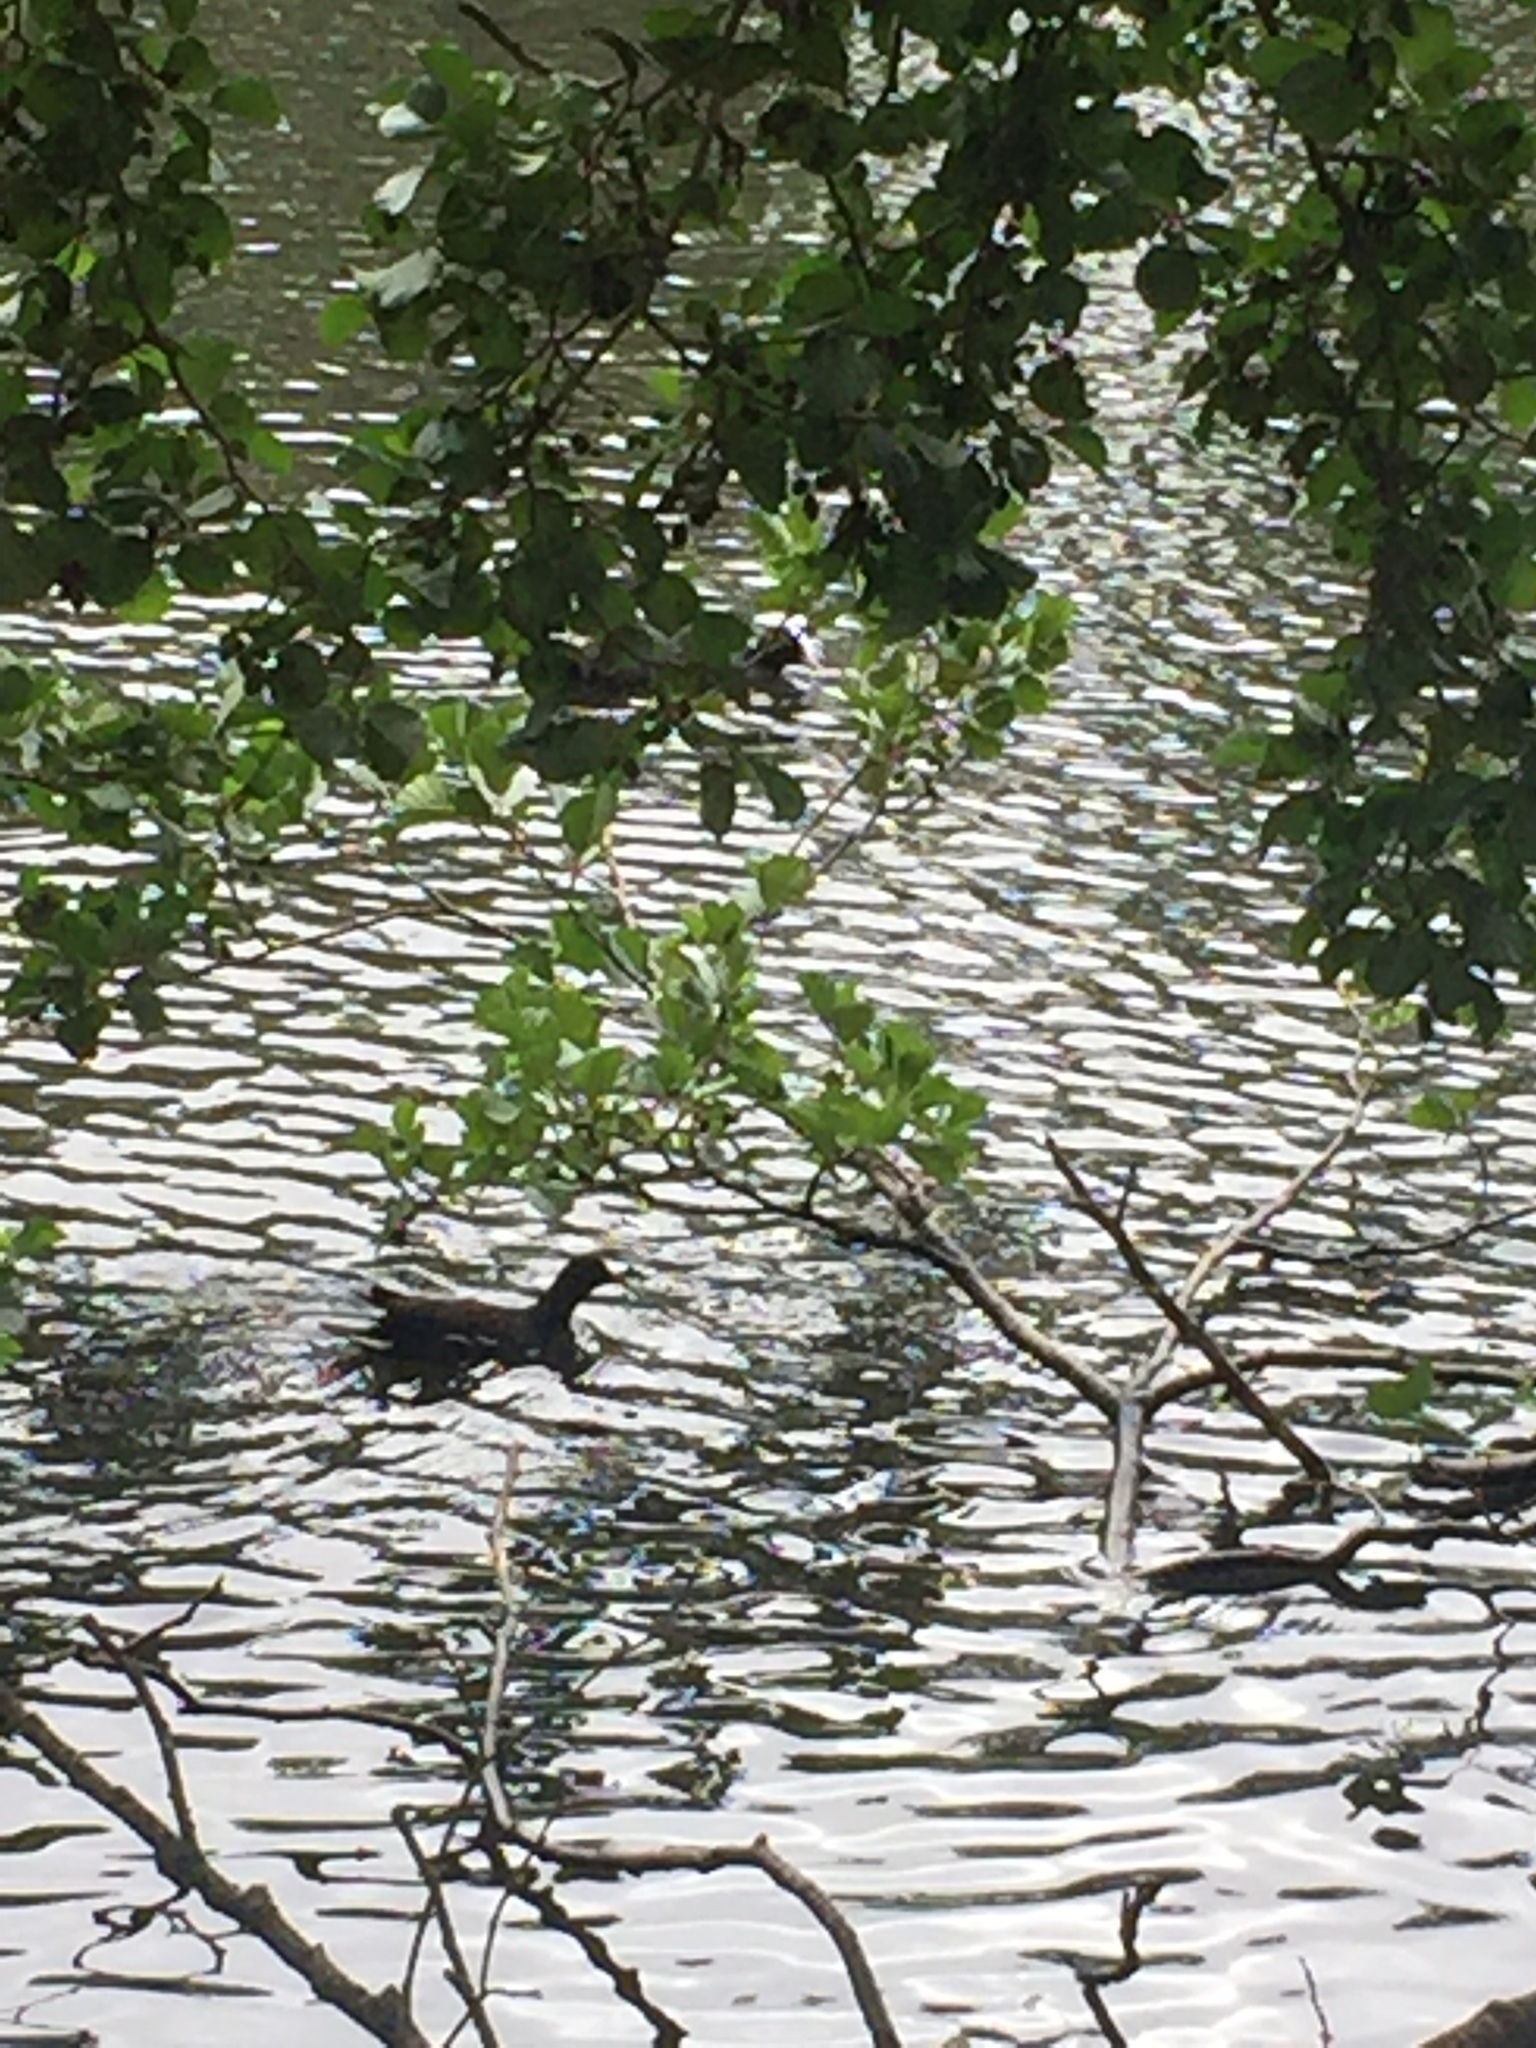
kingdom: Animalia
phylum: Chordata
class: Aves
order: Gruiformes
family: Rallidae
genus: Gallinula
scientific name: Gallinula chloropus
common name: Common moorhen
